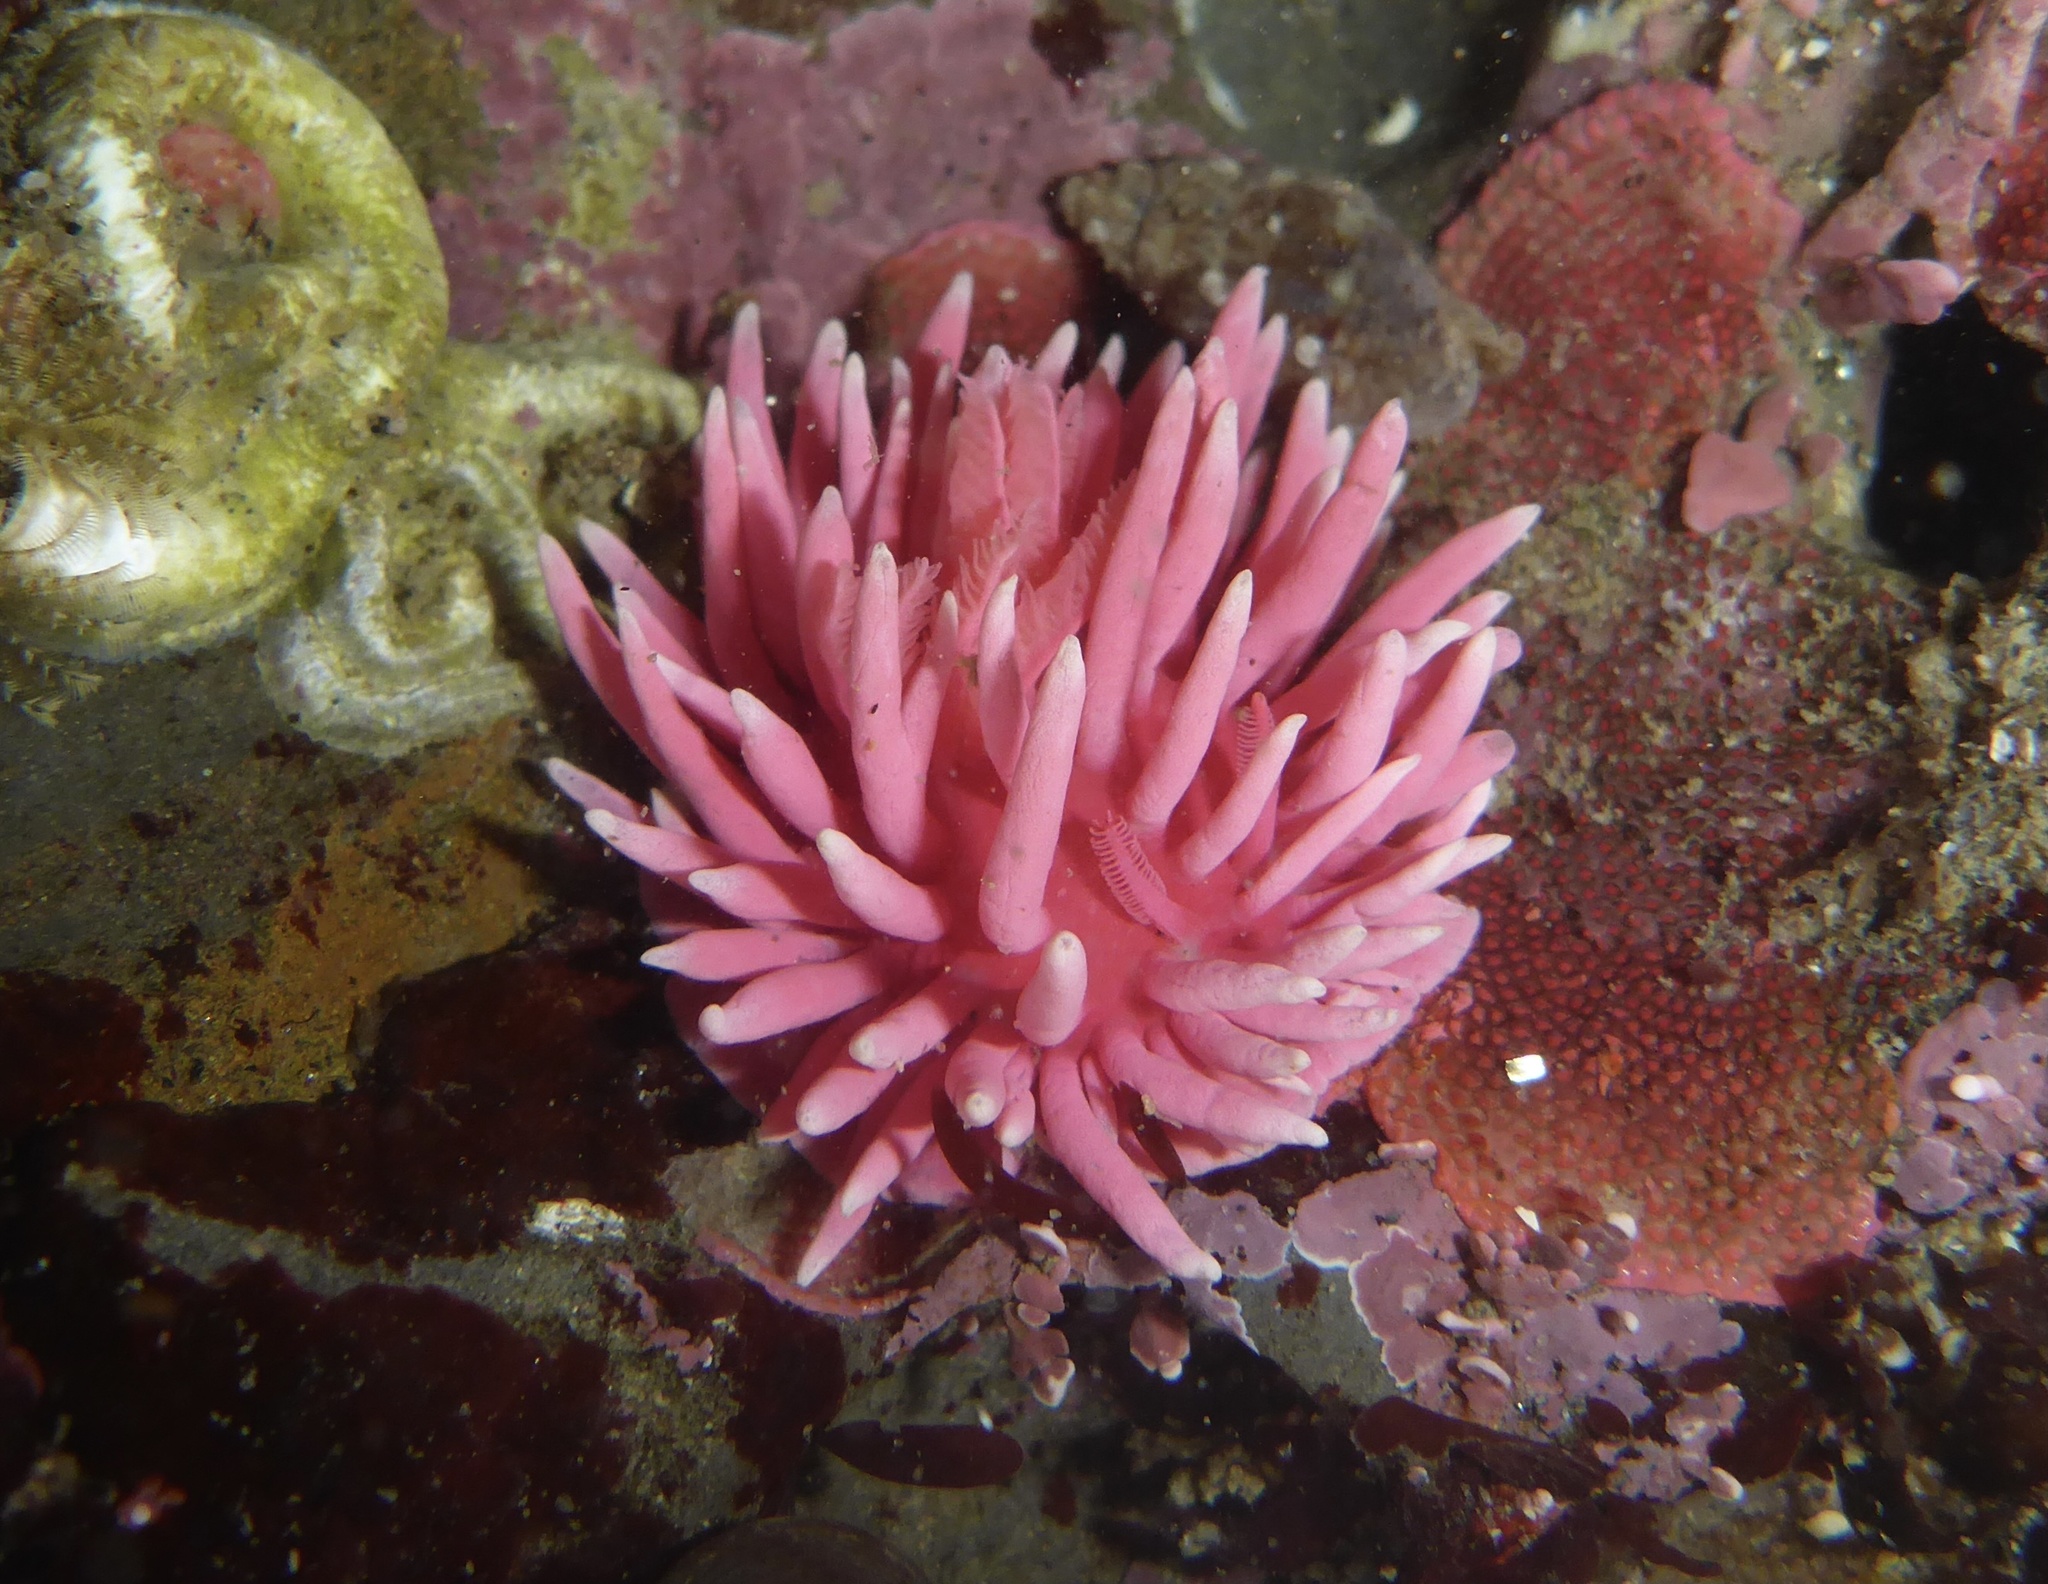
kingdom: Animalia
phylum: Mollusca
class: Gastropoda
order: Nudibranchia
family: Goniodorididae
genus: Okenia
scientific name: Okenia
